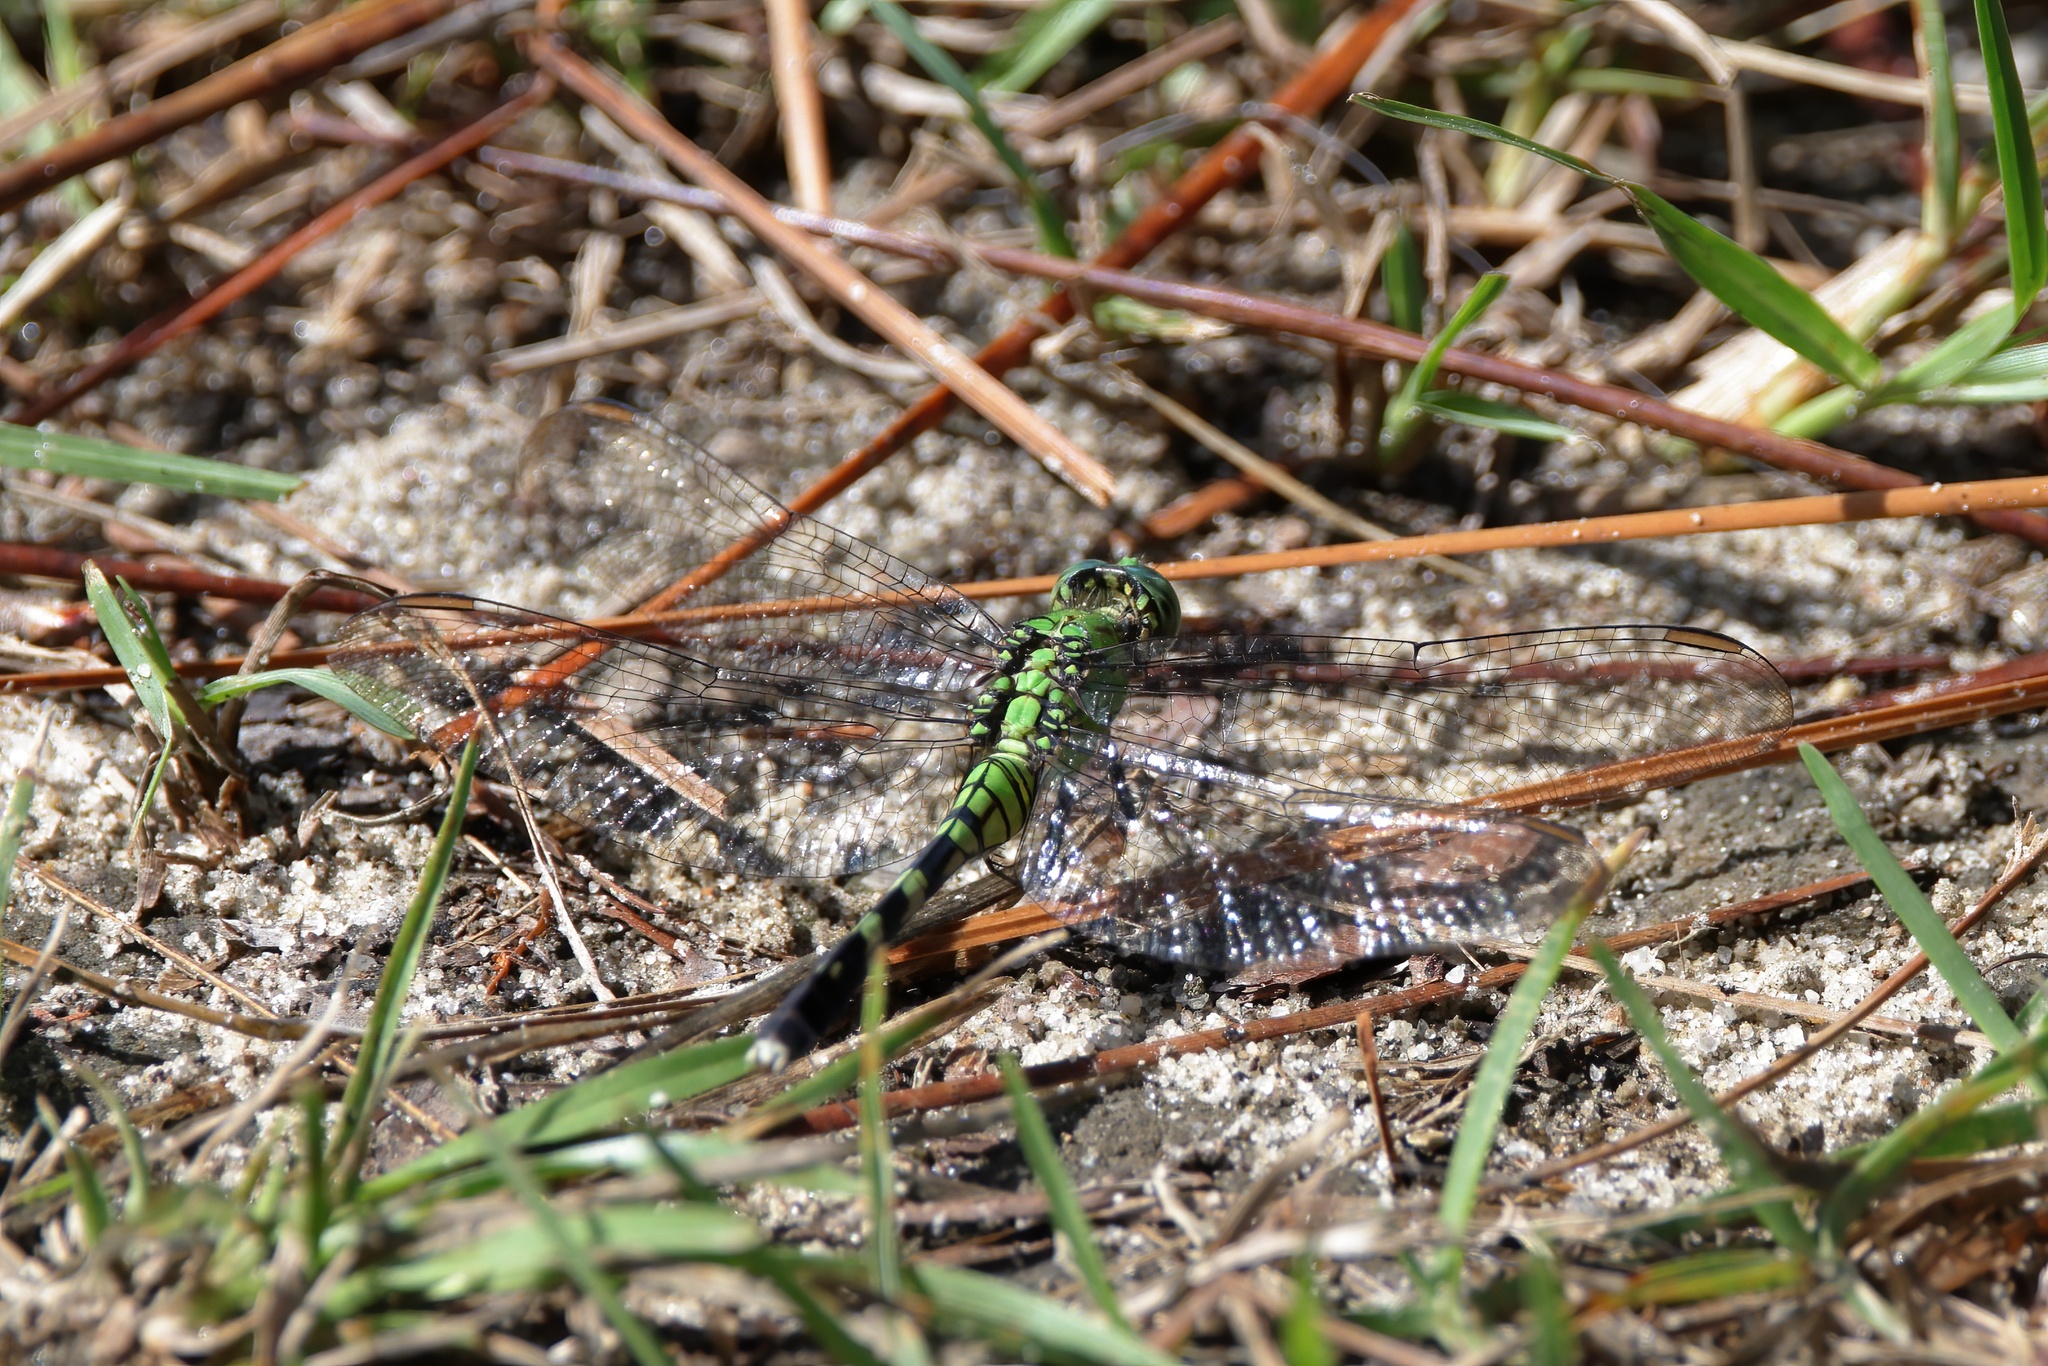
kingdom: Animalia
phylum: Arthropoda
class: Insecta
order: Odonata
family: Libellulidae
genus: Erythemis
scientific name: Erythemis simplicicollis
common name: Eastern pondhawk
